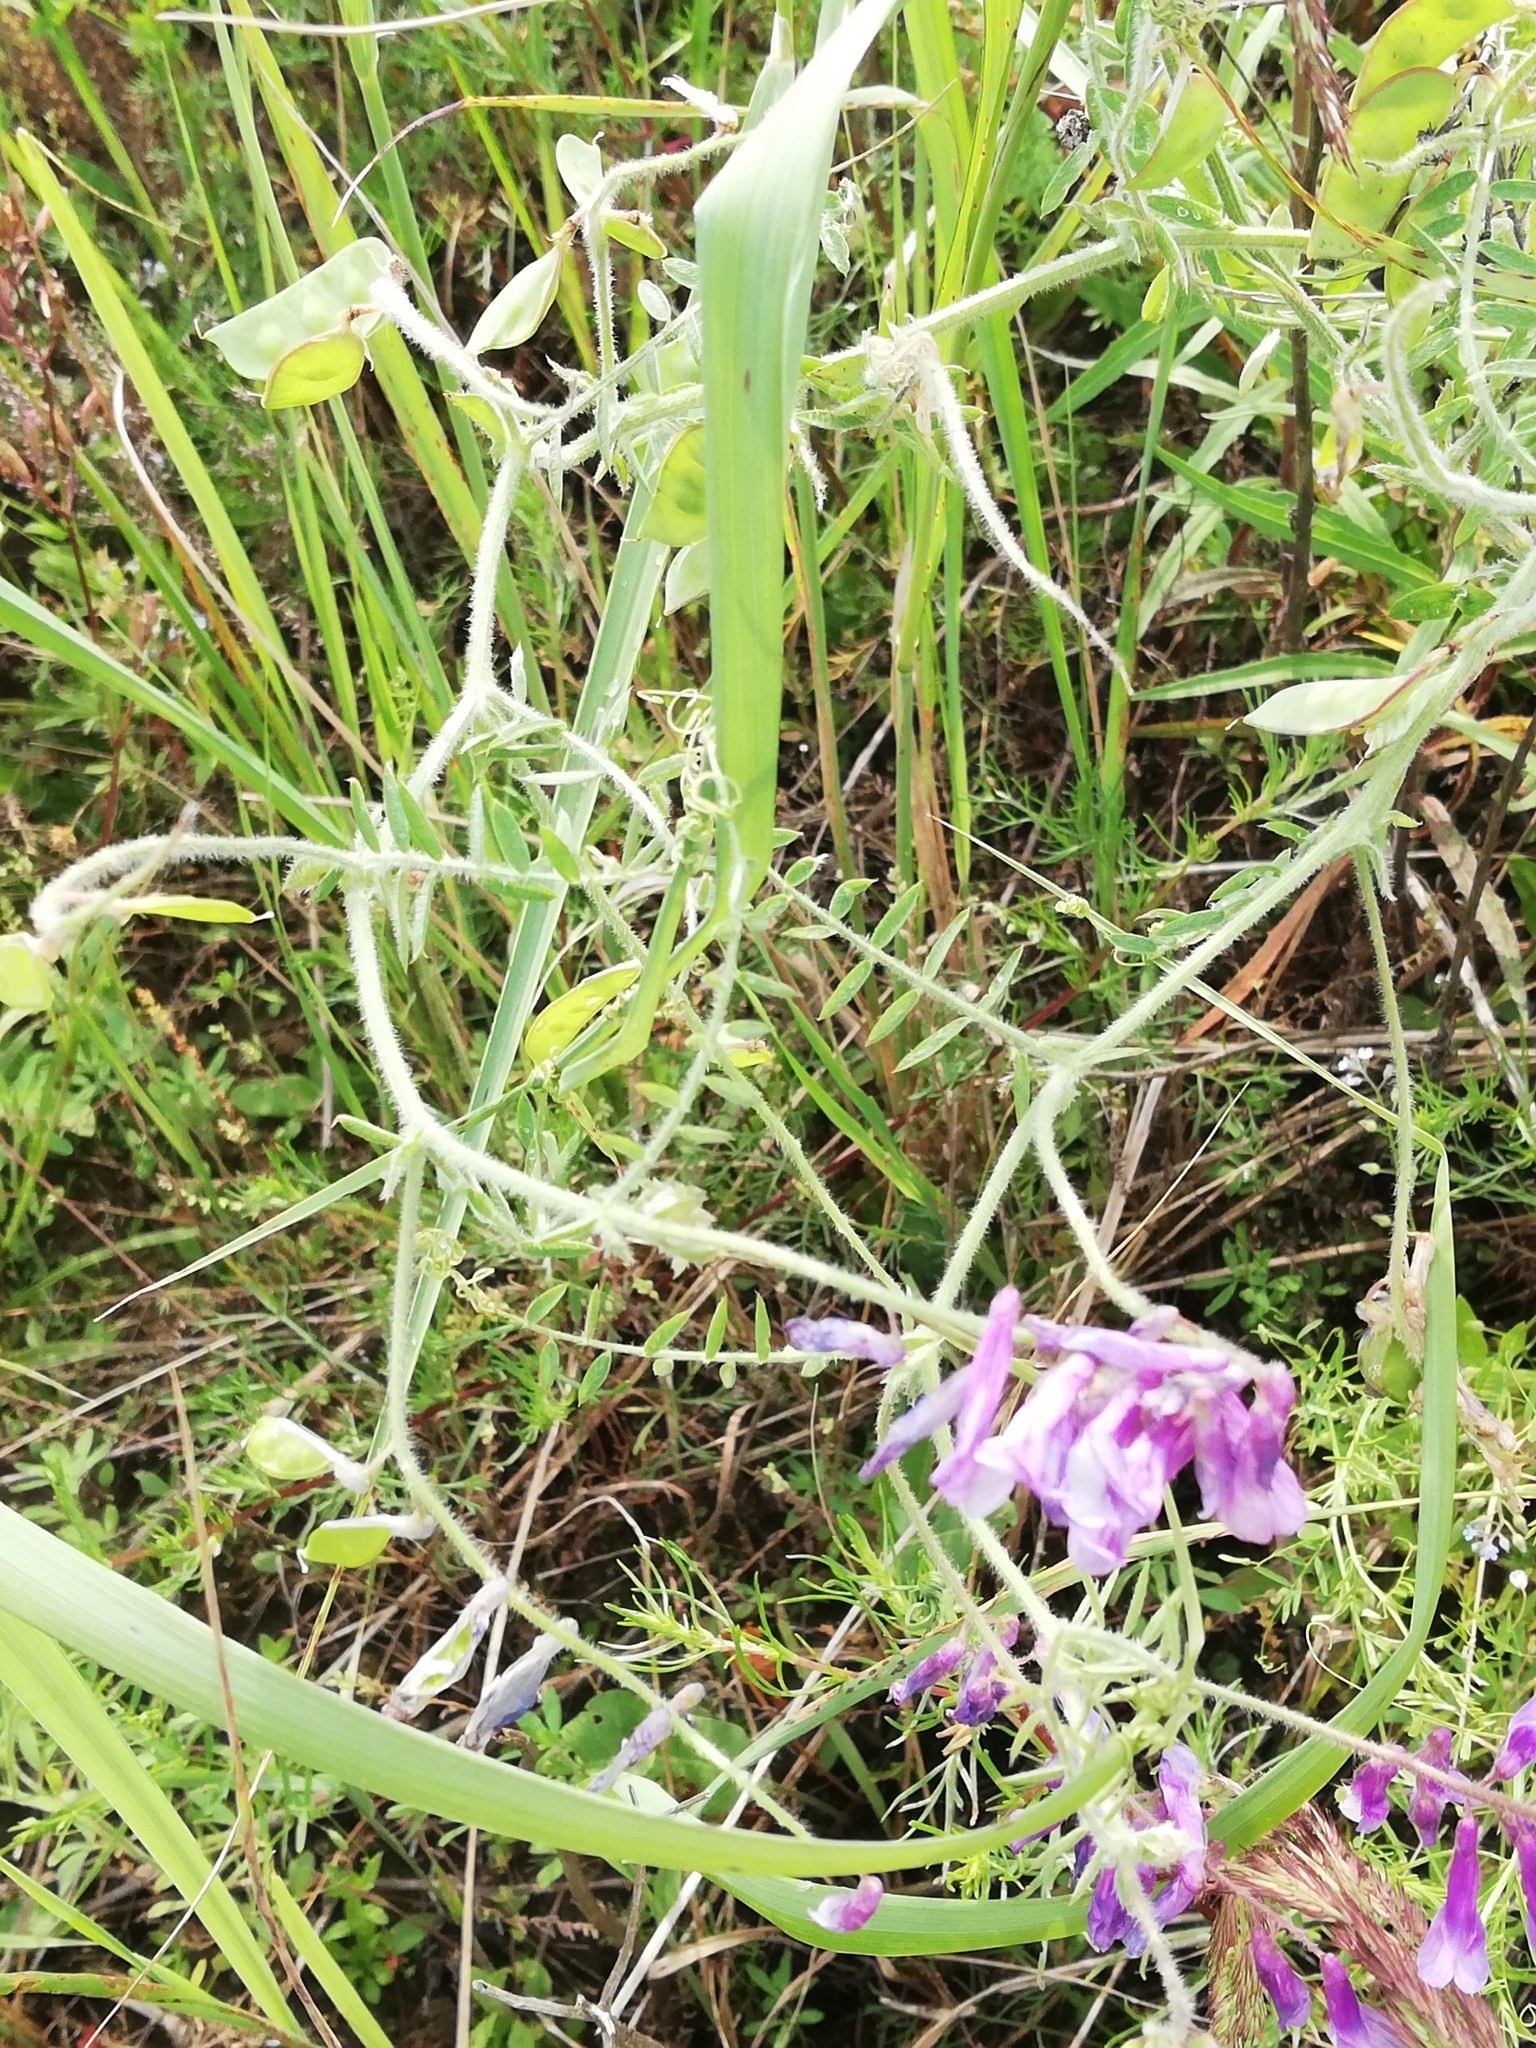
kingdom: Plantae
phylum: Tracheophyta
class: Magnoliopsida
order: Fabales
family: Fabaceae
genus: Vicia
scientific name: Vicia villosa
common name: Fodder vetch
